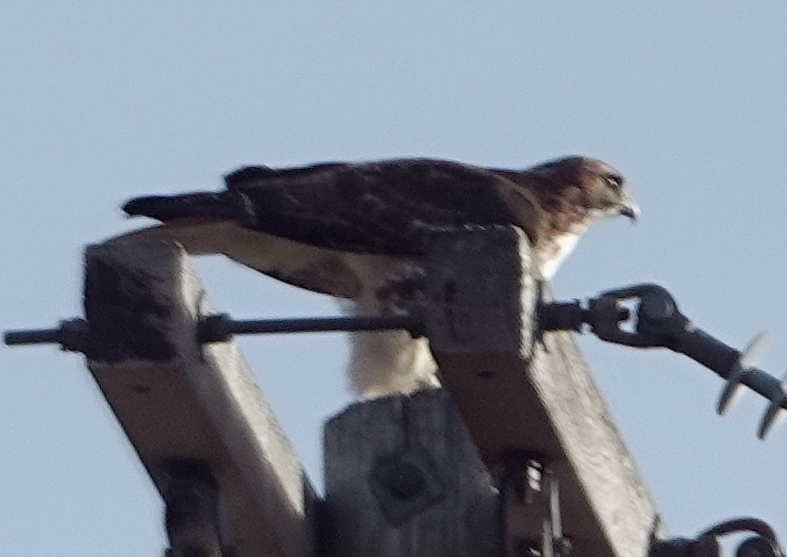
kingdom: Animalia
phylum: Chordata
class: Aves
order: Accipitriformes
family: Accipitridae
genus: Buteo
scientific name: Buteo jamaicensis
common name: Red-tailed hawk
